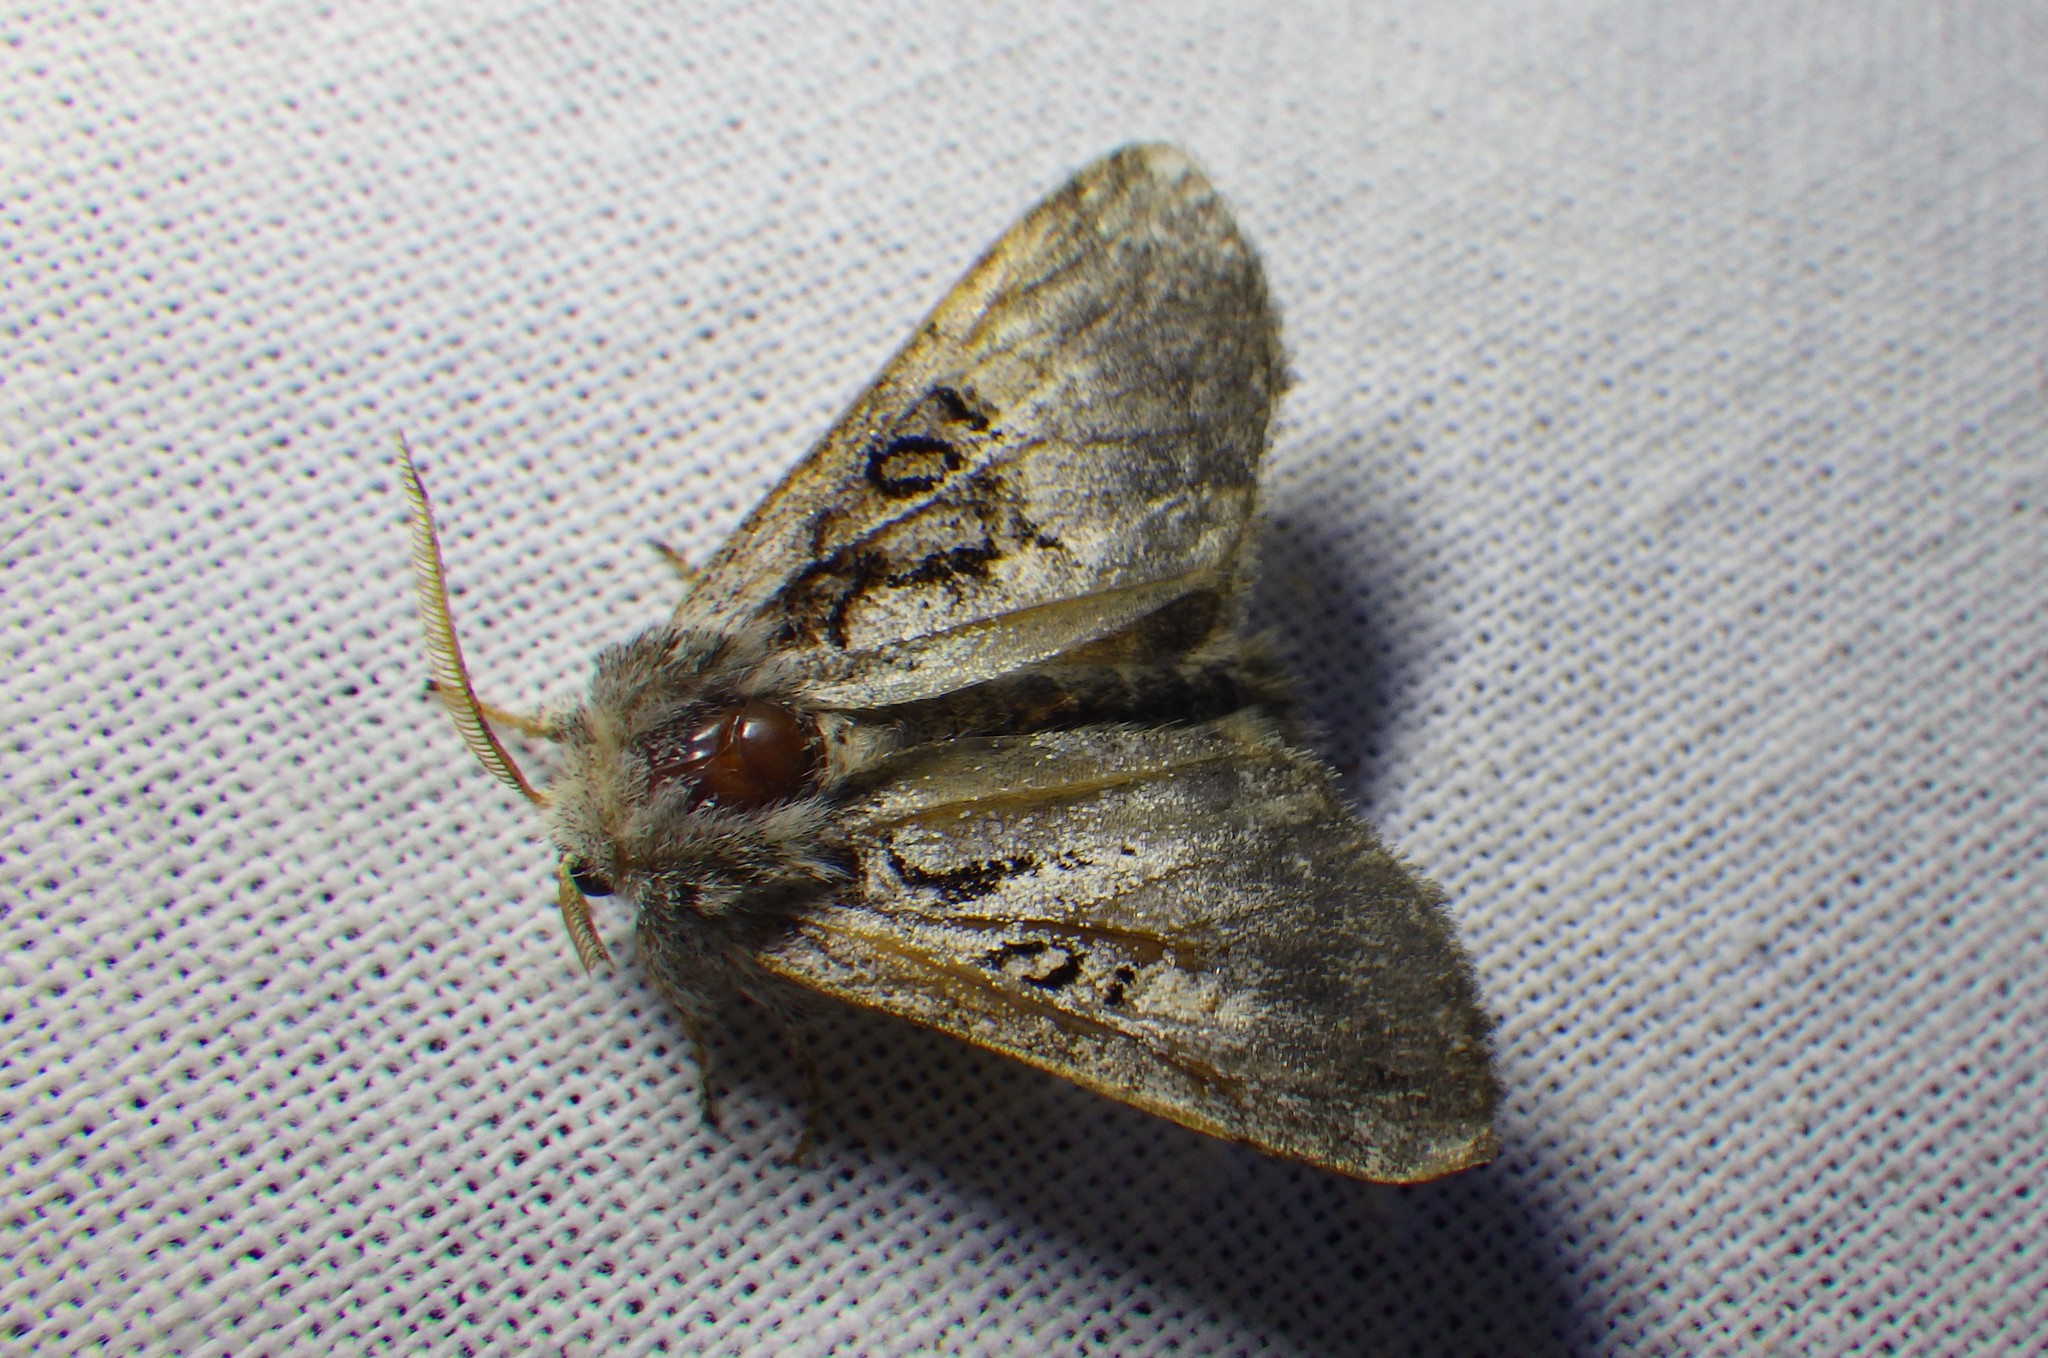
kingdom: Animalia
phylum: Arthropoda
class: Insecta
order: Lepidoptera
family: Noctuidae
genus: Colocasia
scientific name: Colocasia coryli
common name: Nut-tree tussock
